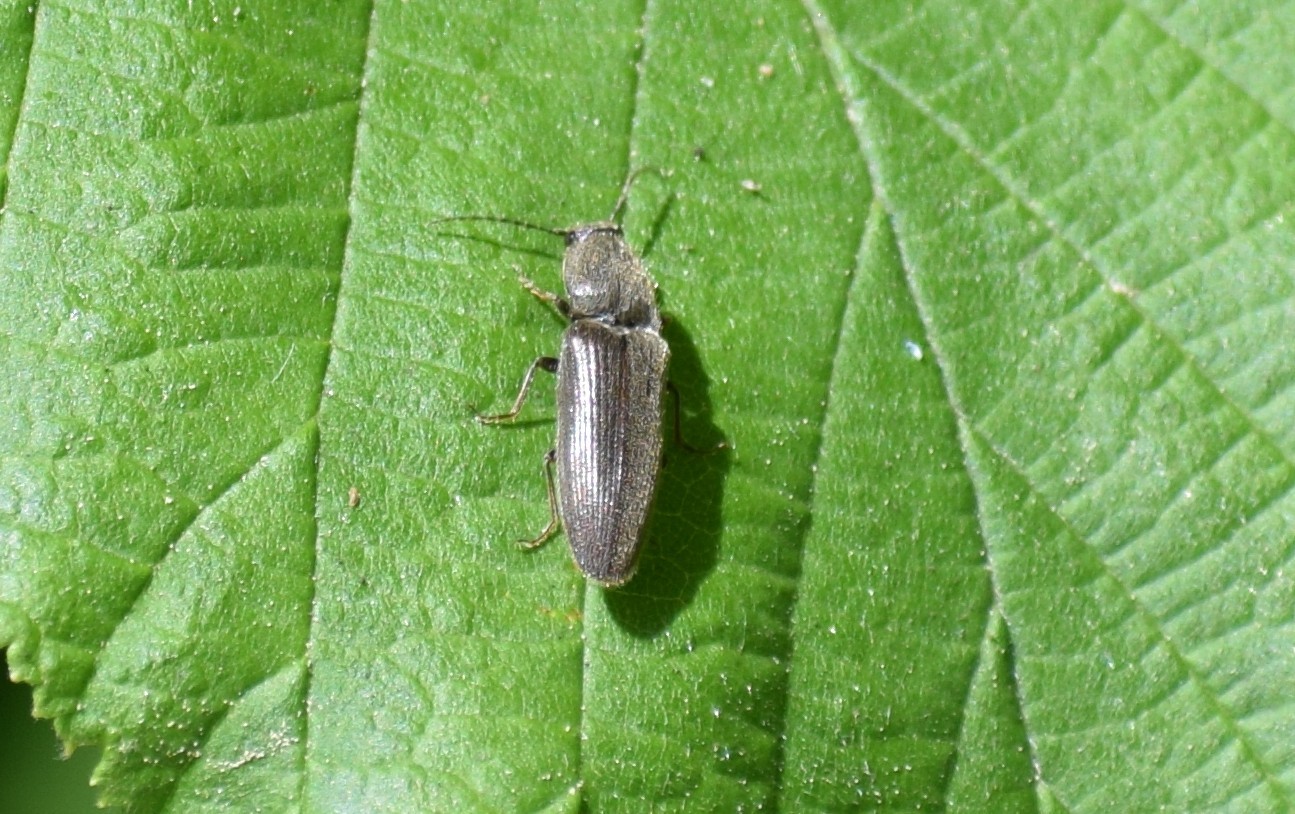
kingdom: Animalia
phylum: Arthropoda
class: Insecta
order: Coleoptera
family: Elateridae
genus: Athous
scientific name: Athous haemorrhoidalis
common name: Red-brown click beetle
